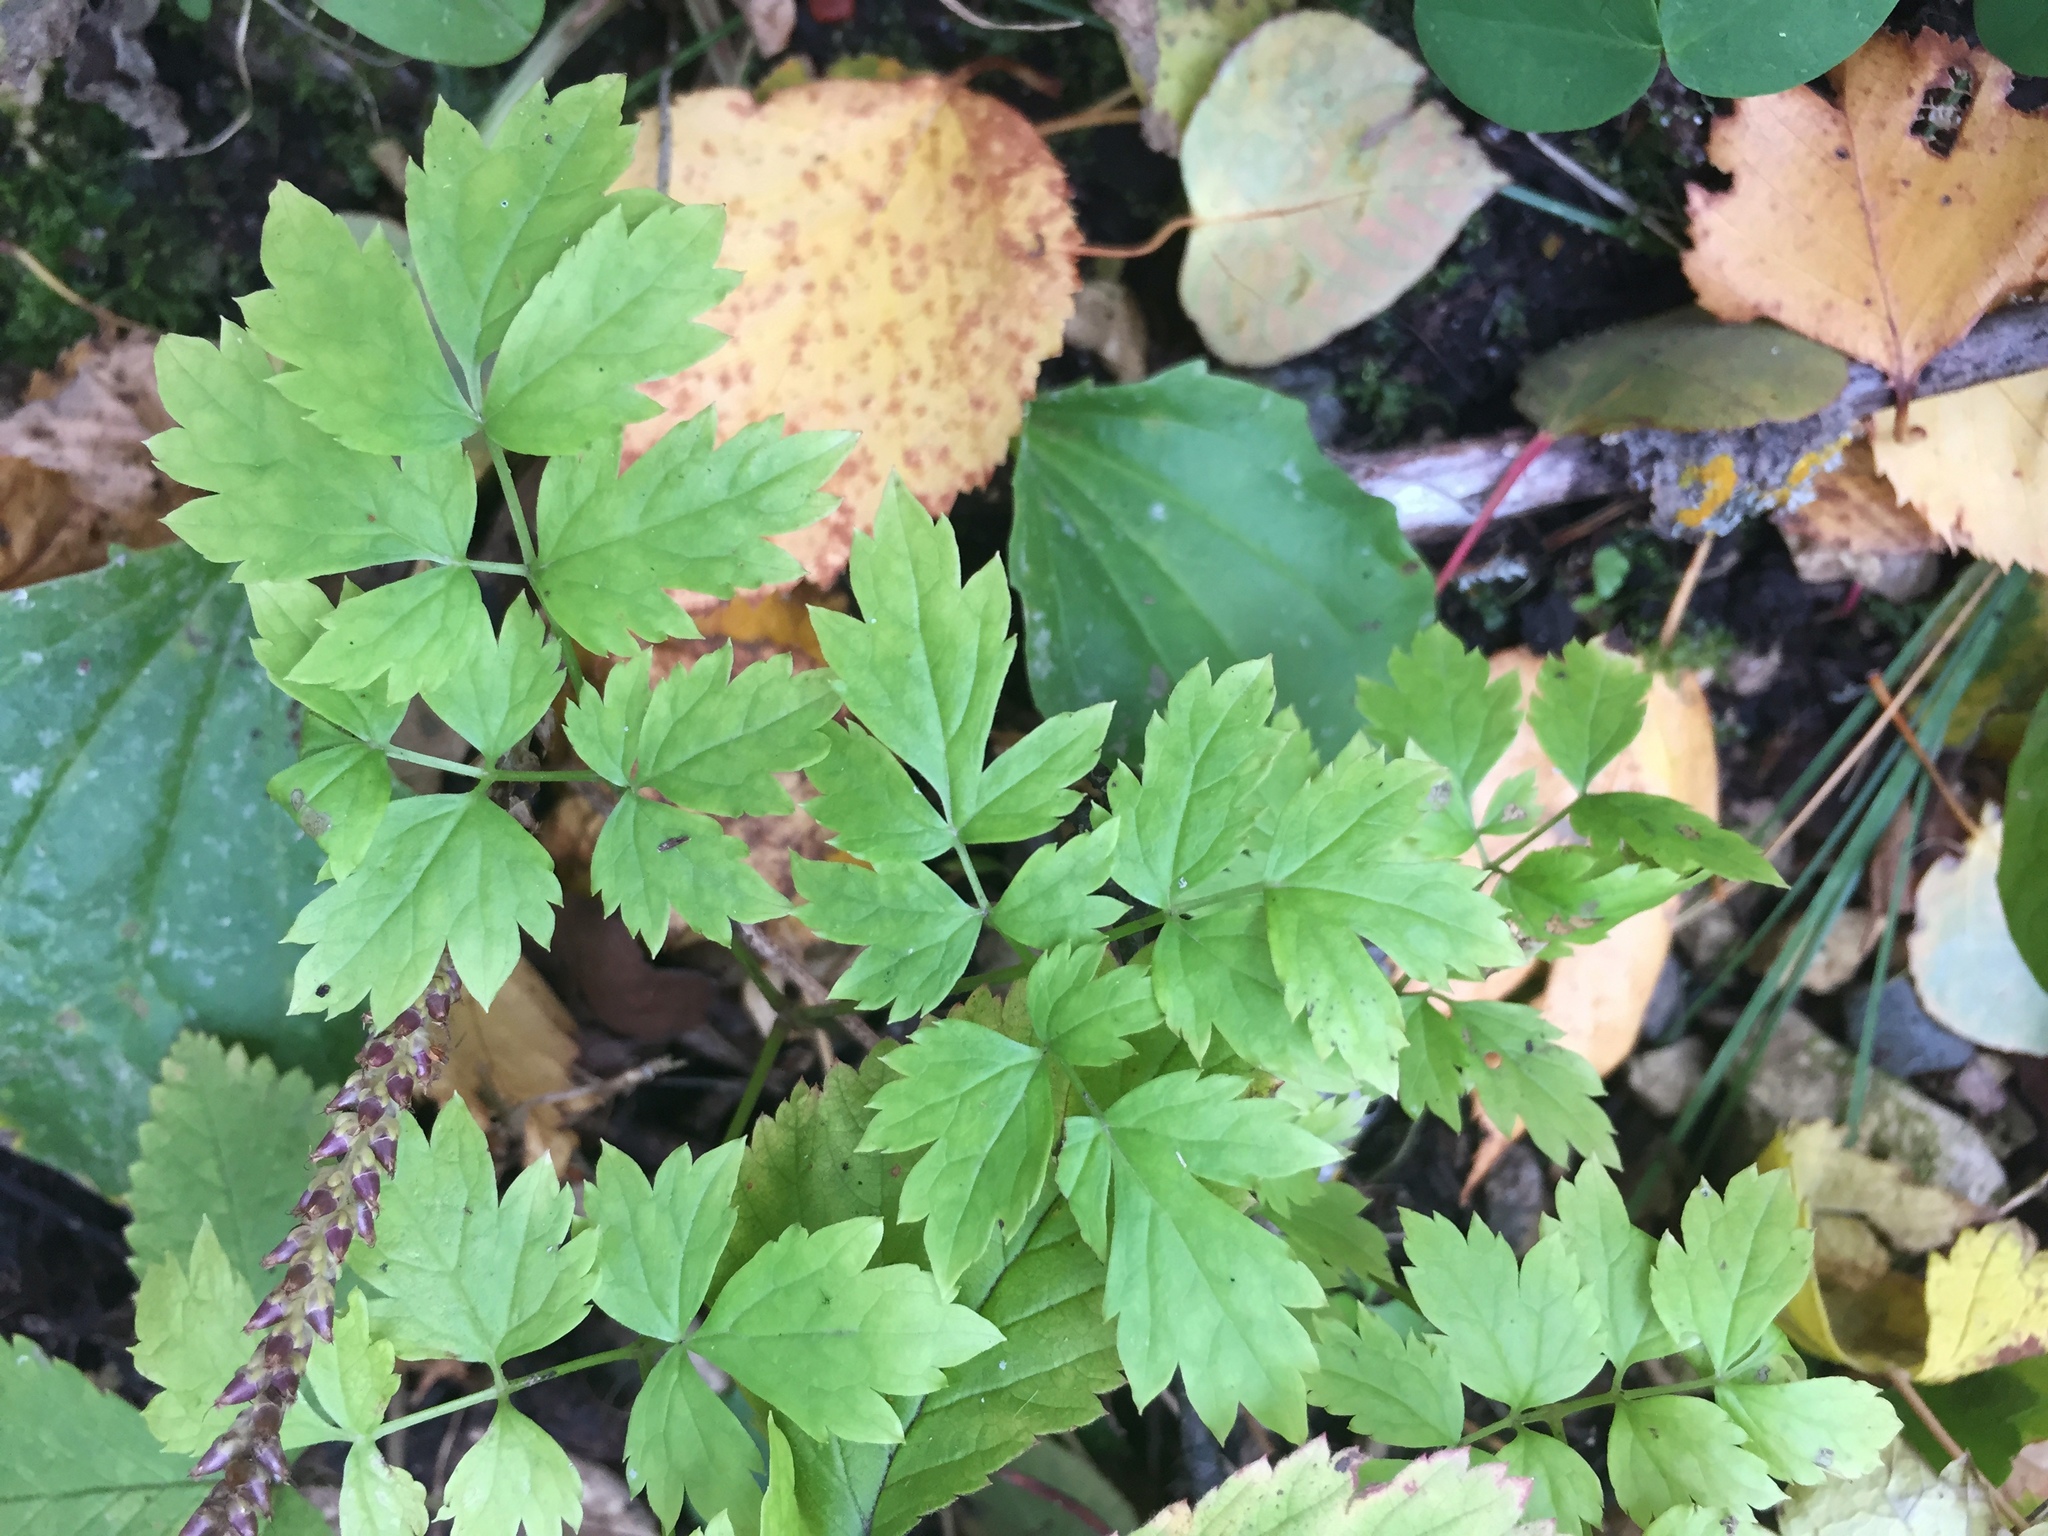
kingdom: Plantae
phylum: Tracheophyta
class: Magnoliopsida
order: Ranunculales
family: Ranunculaceae
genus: Actaea
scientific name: Actaea rubra
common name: Red baneberry
